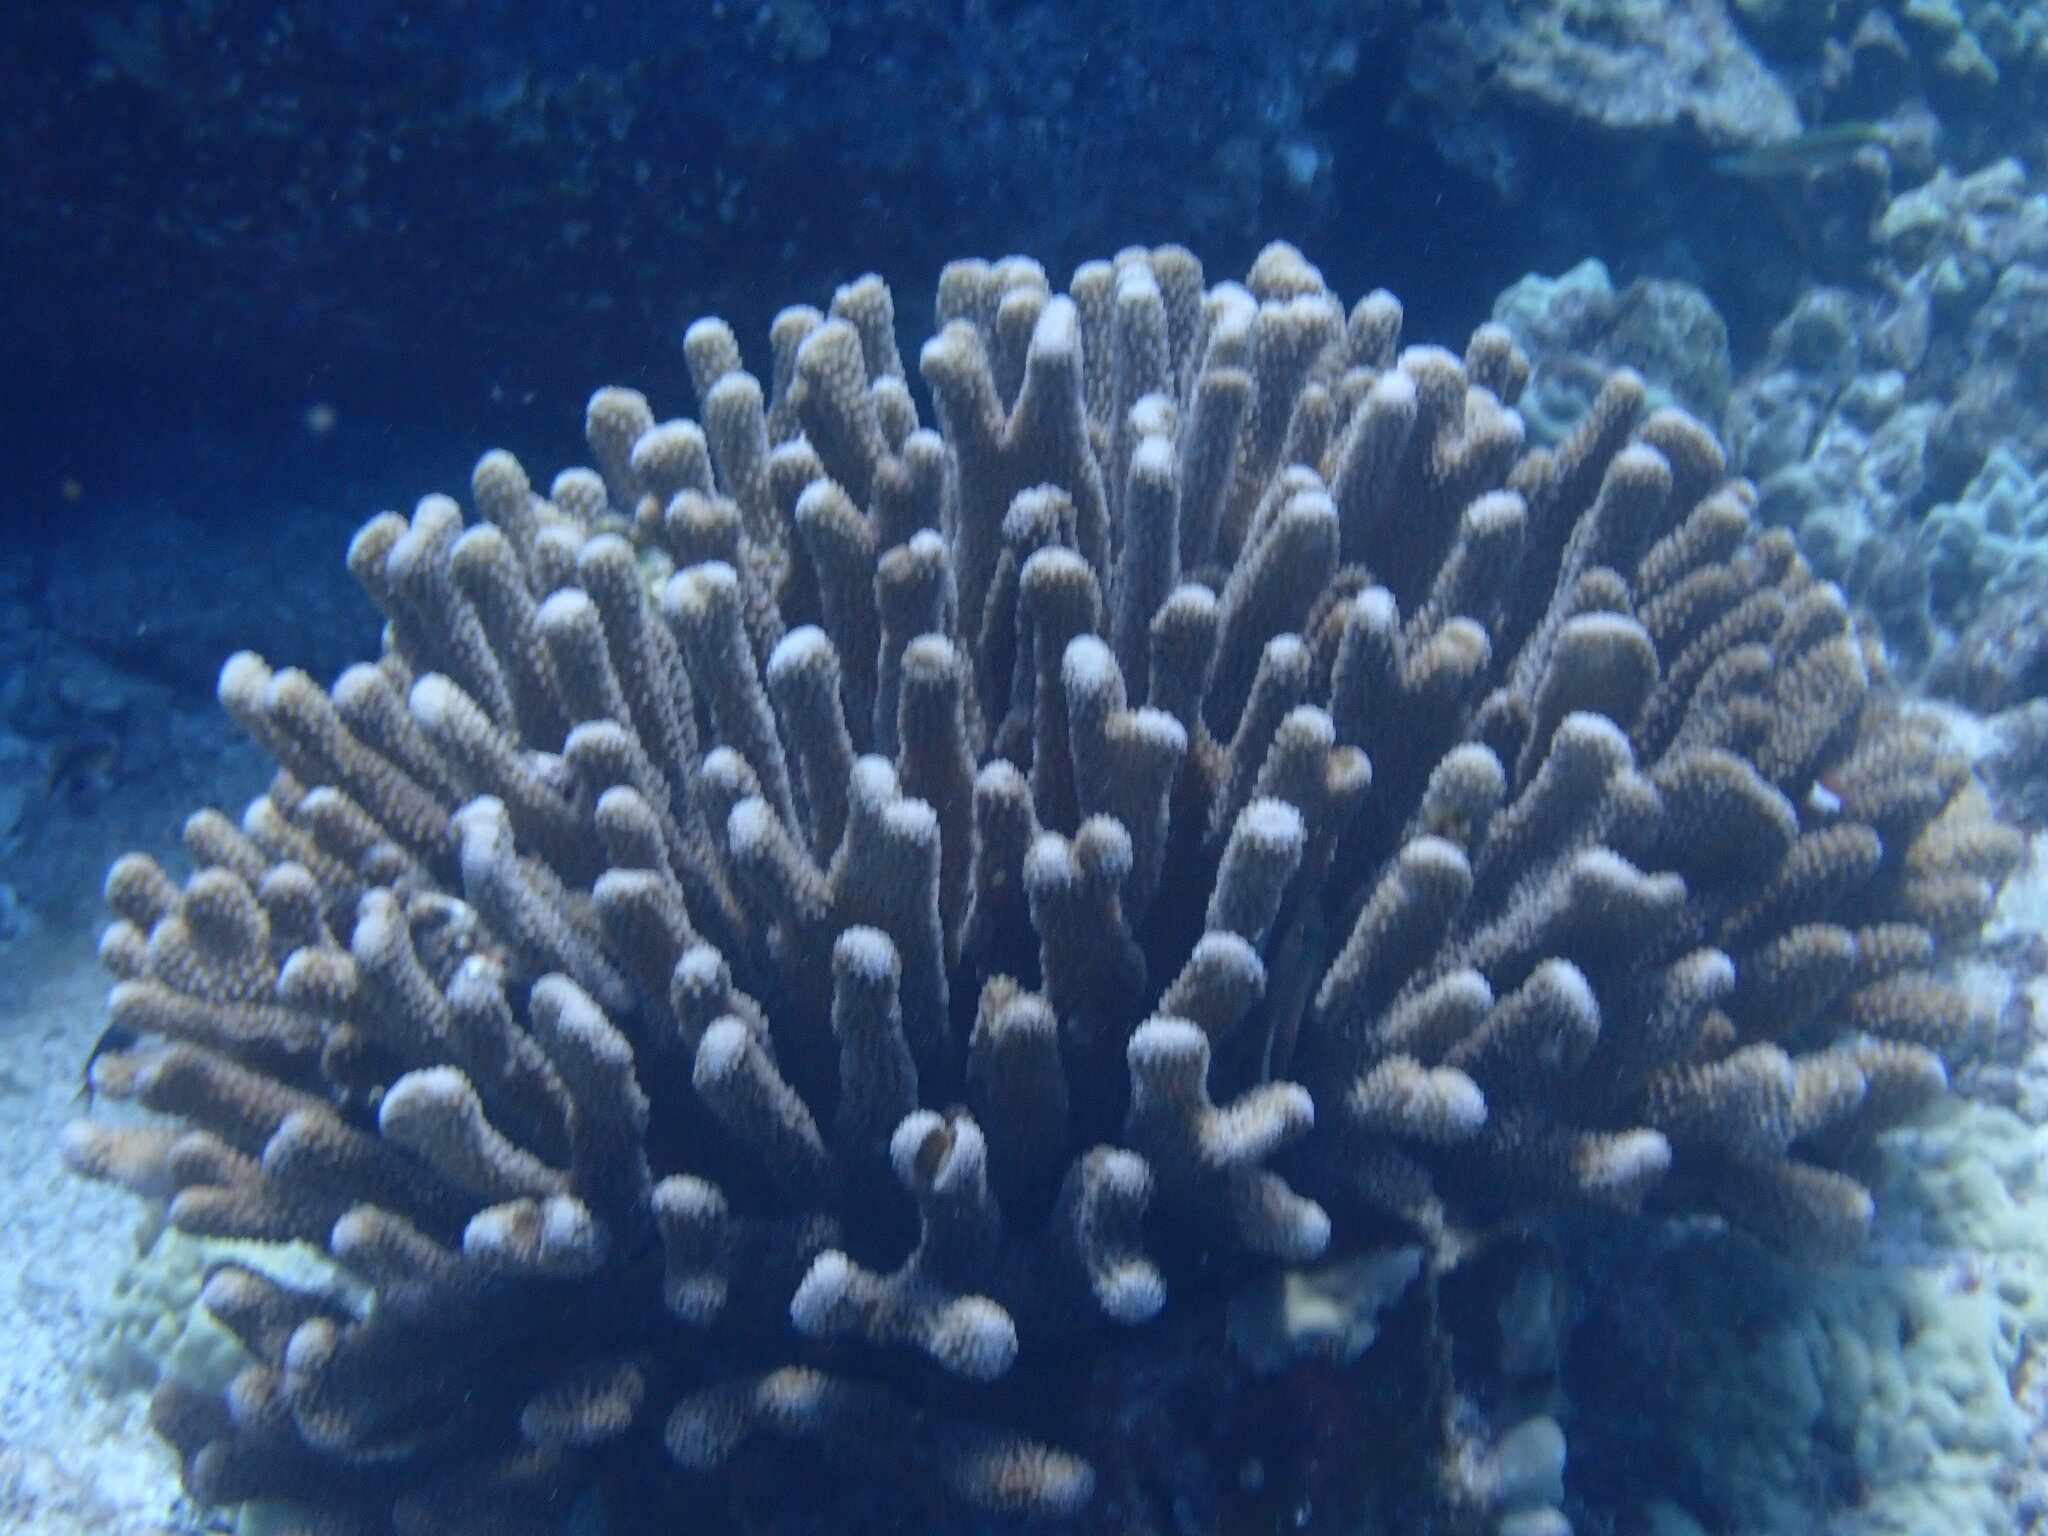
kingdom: Animalia
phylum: Cnidaria
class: Anthozoa
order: Scleractinia
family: Pocilloporidae
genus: Pocillopora
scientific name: Pocillopora grandis
